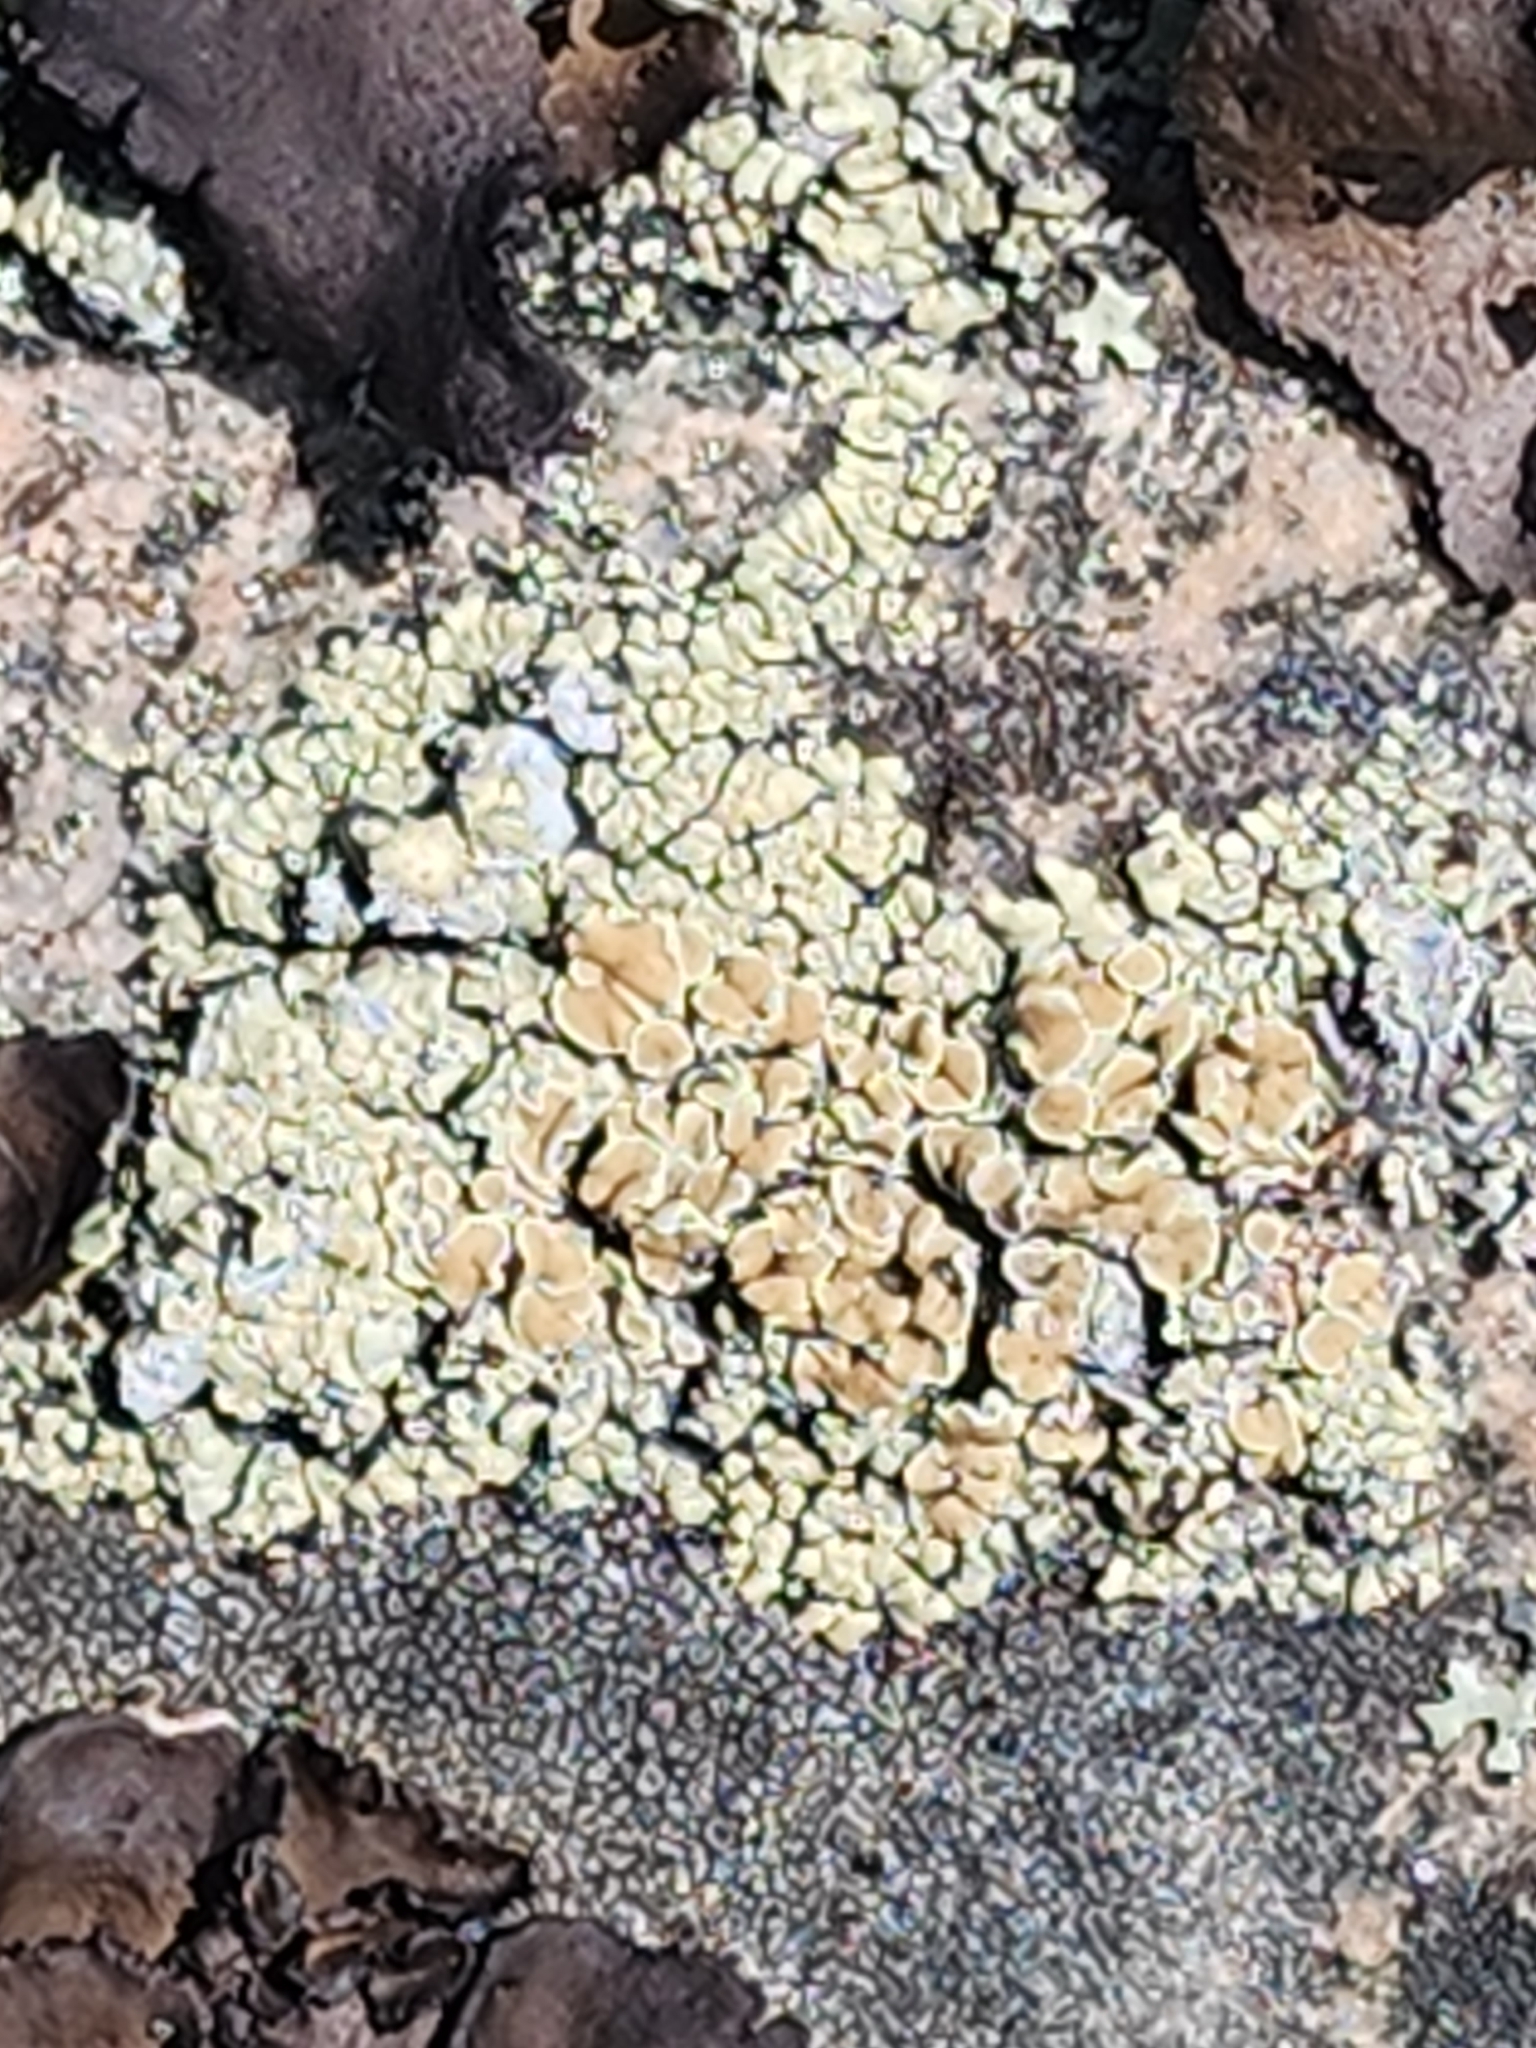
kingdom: Fungi
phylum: Ascomycota
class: Lecanoromycetes
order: Lecanorales
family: Lecanoraceae
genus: Sedelnikovaea
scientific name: Sedelnikovaea subdiscrepans
